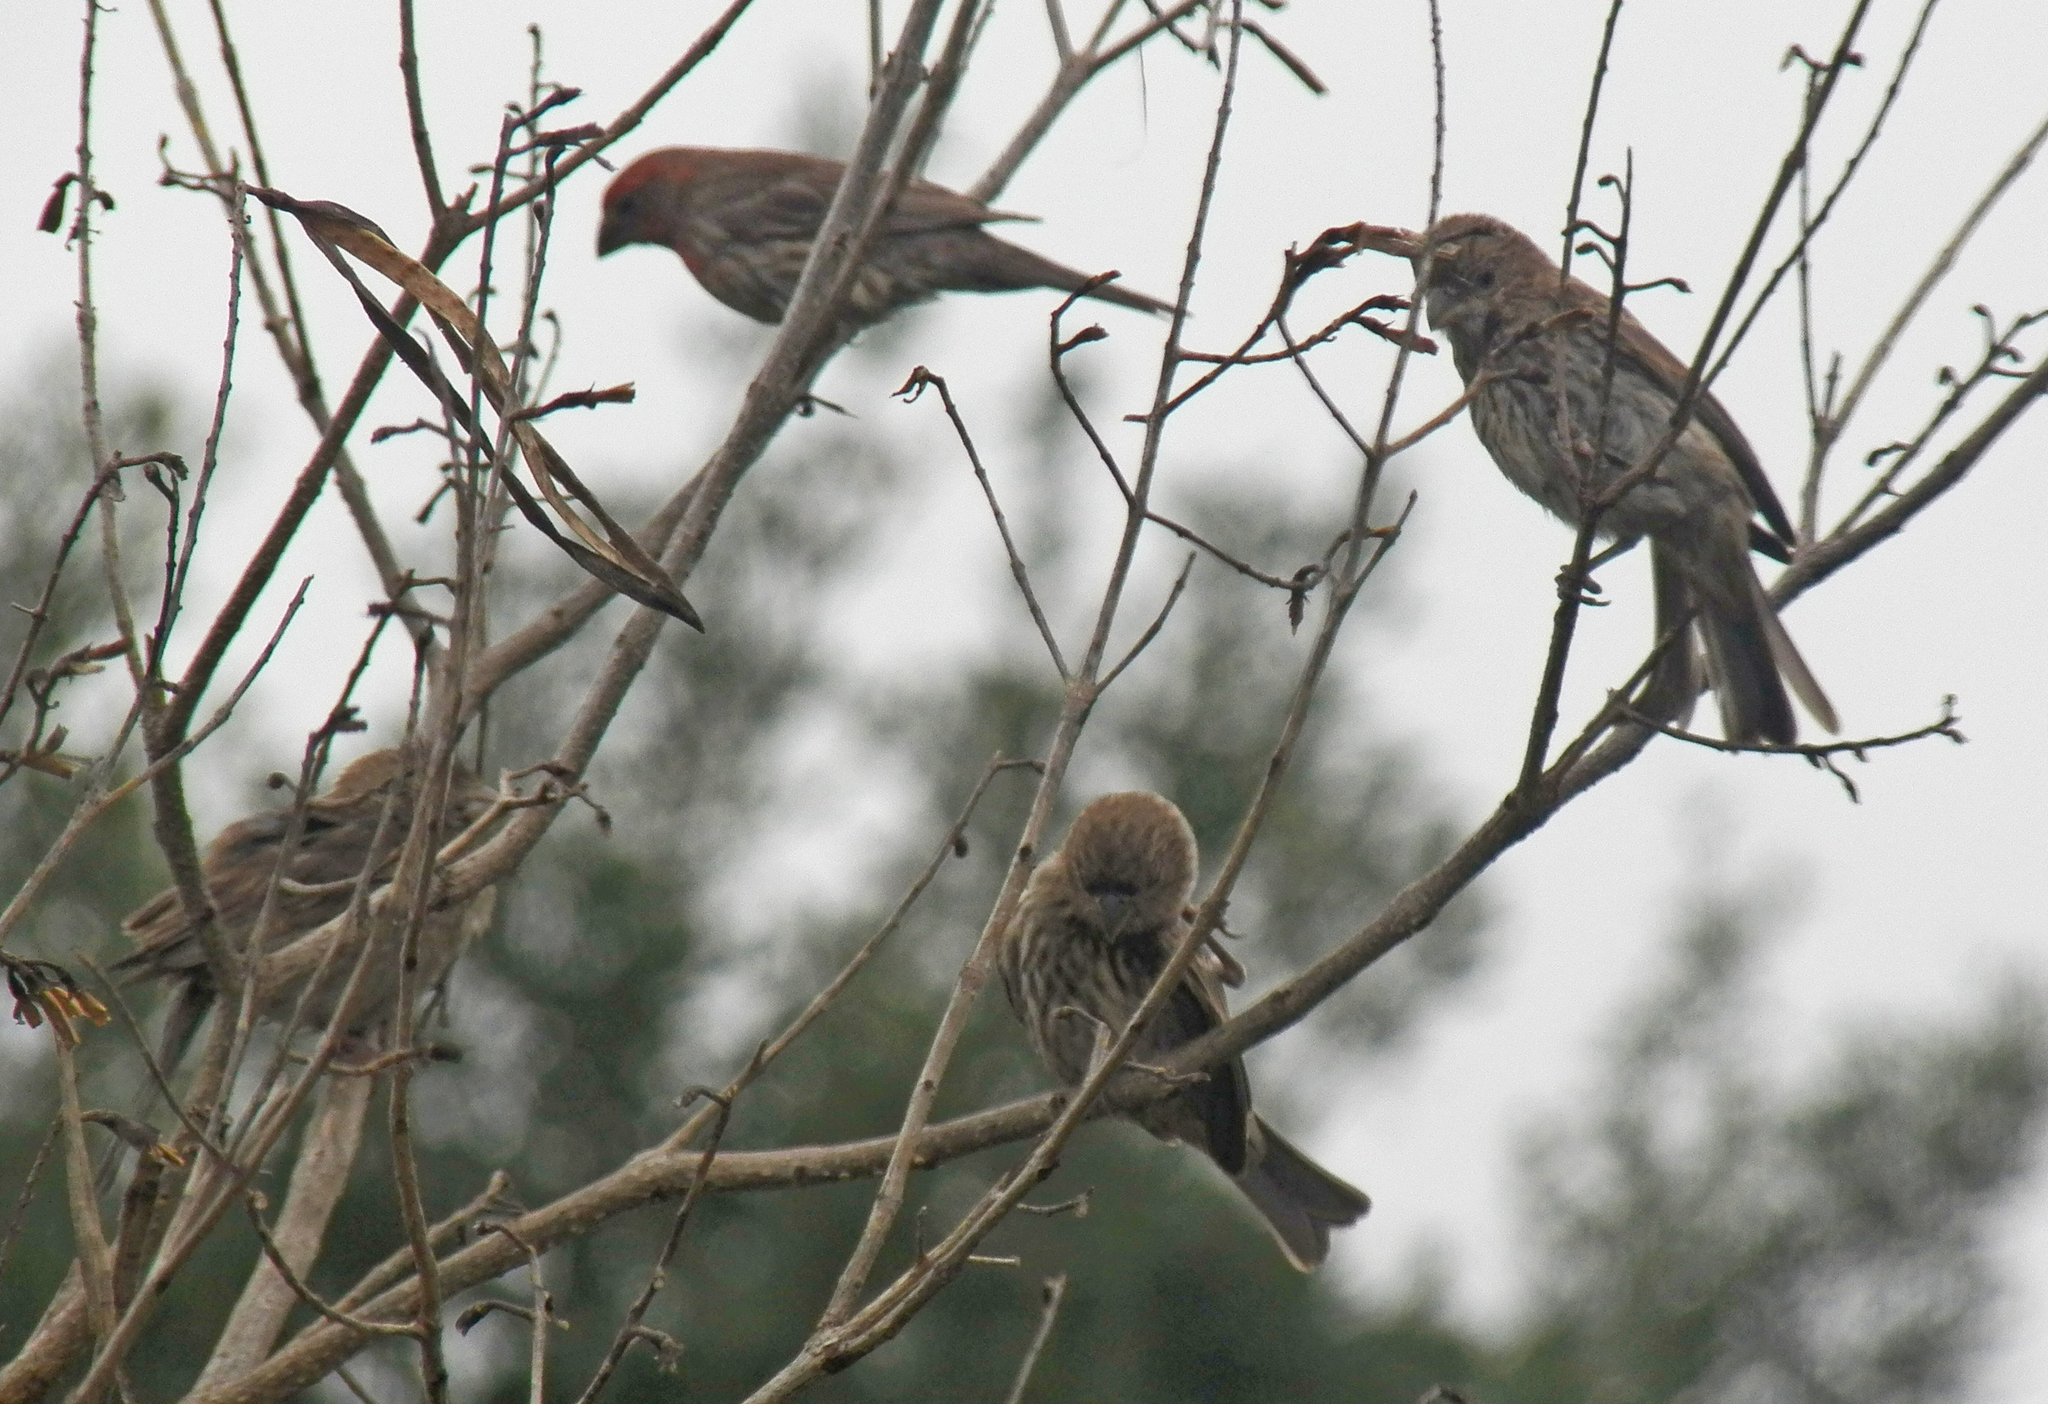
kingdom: Animalia
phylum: Chordata
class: Aves
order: Passeriformes
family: Fringillidae
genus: Haemorhous
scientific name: Haemorhous mexicanus
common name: House finch
